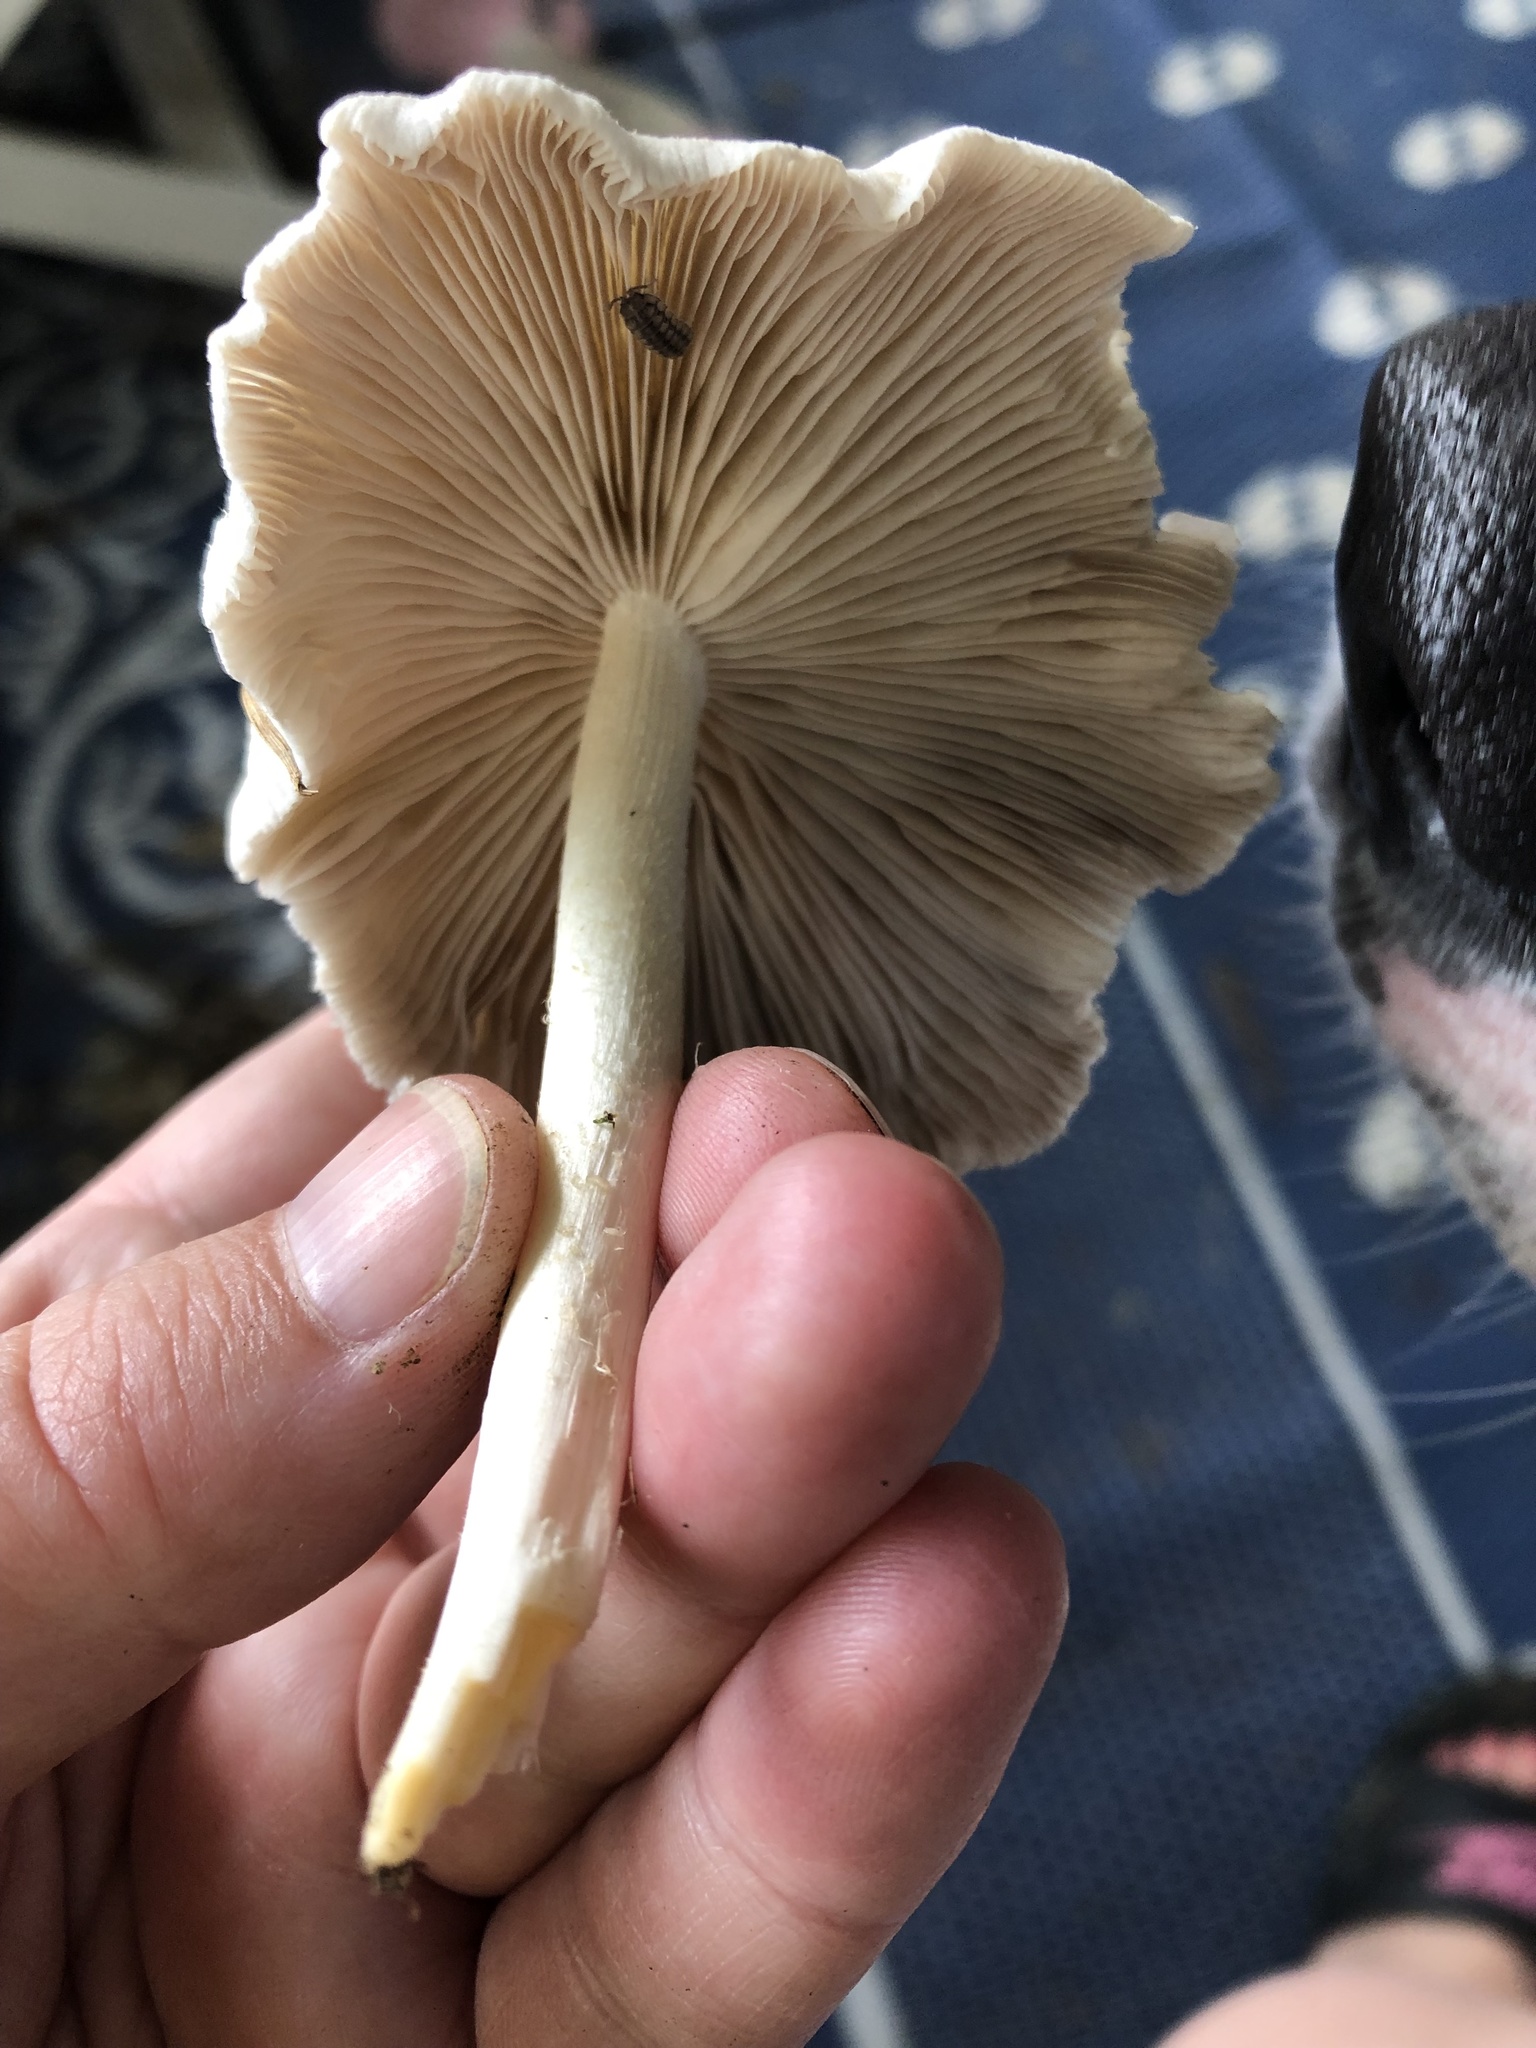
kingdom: Fungi
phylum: Basidiomycota
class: Agaricomycetes
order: Agaricales
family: Psathyrellaceae
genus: Candolleomyces
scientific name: Candolleomyces candolleanus
